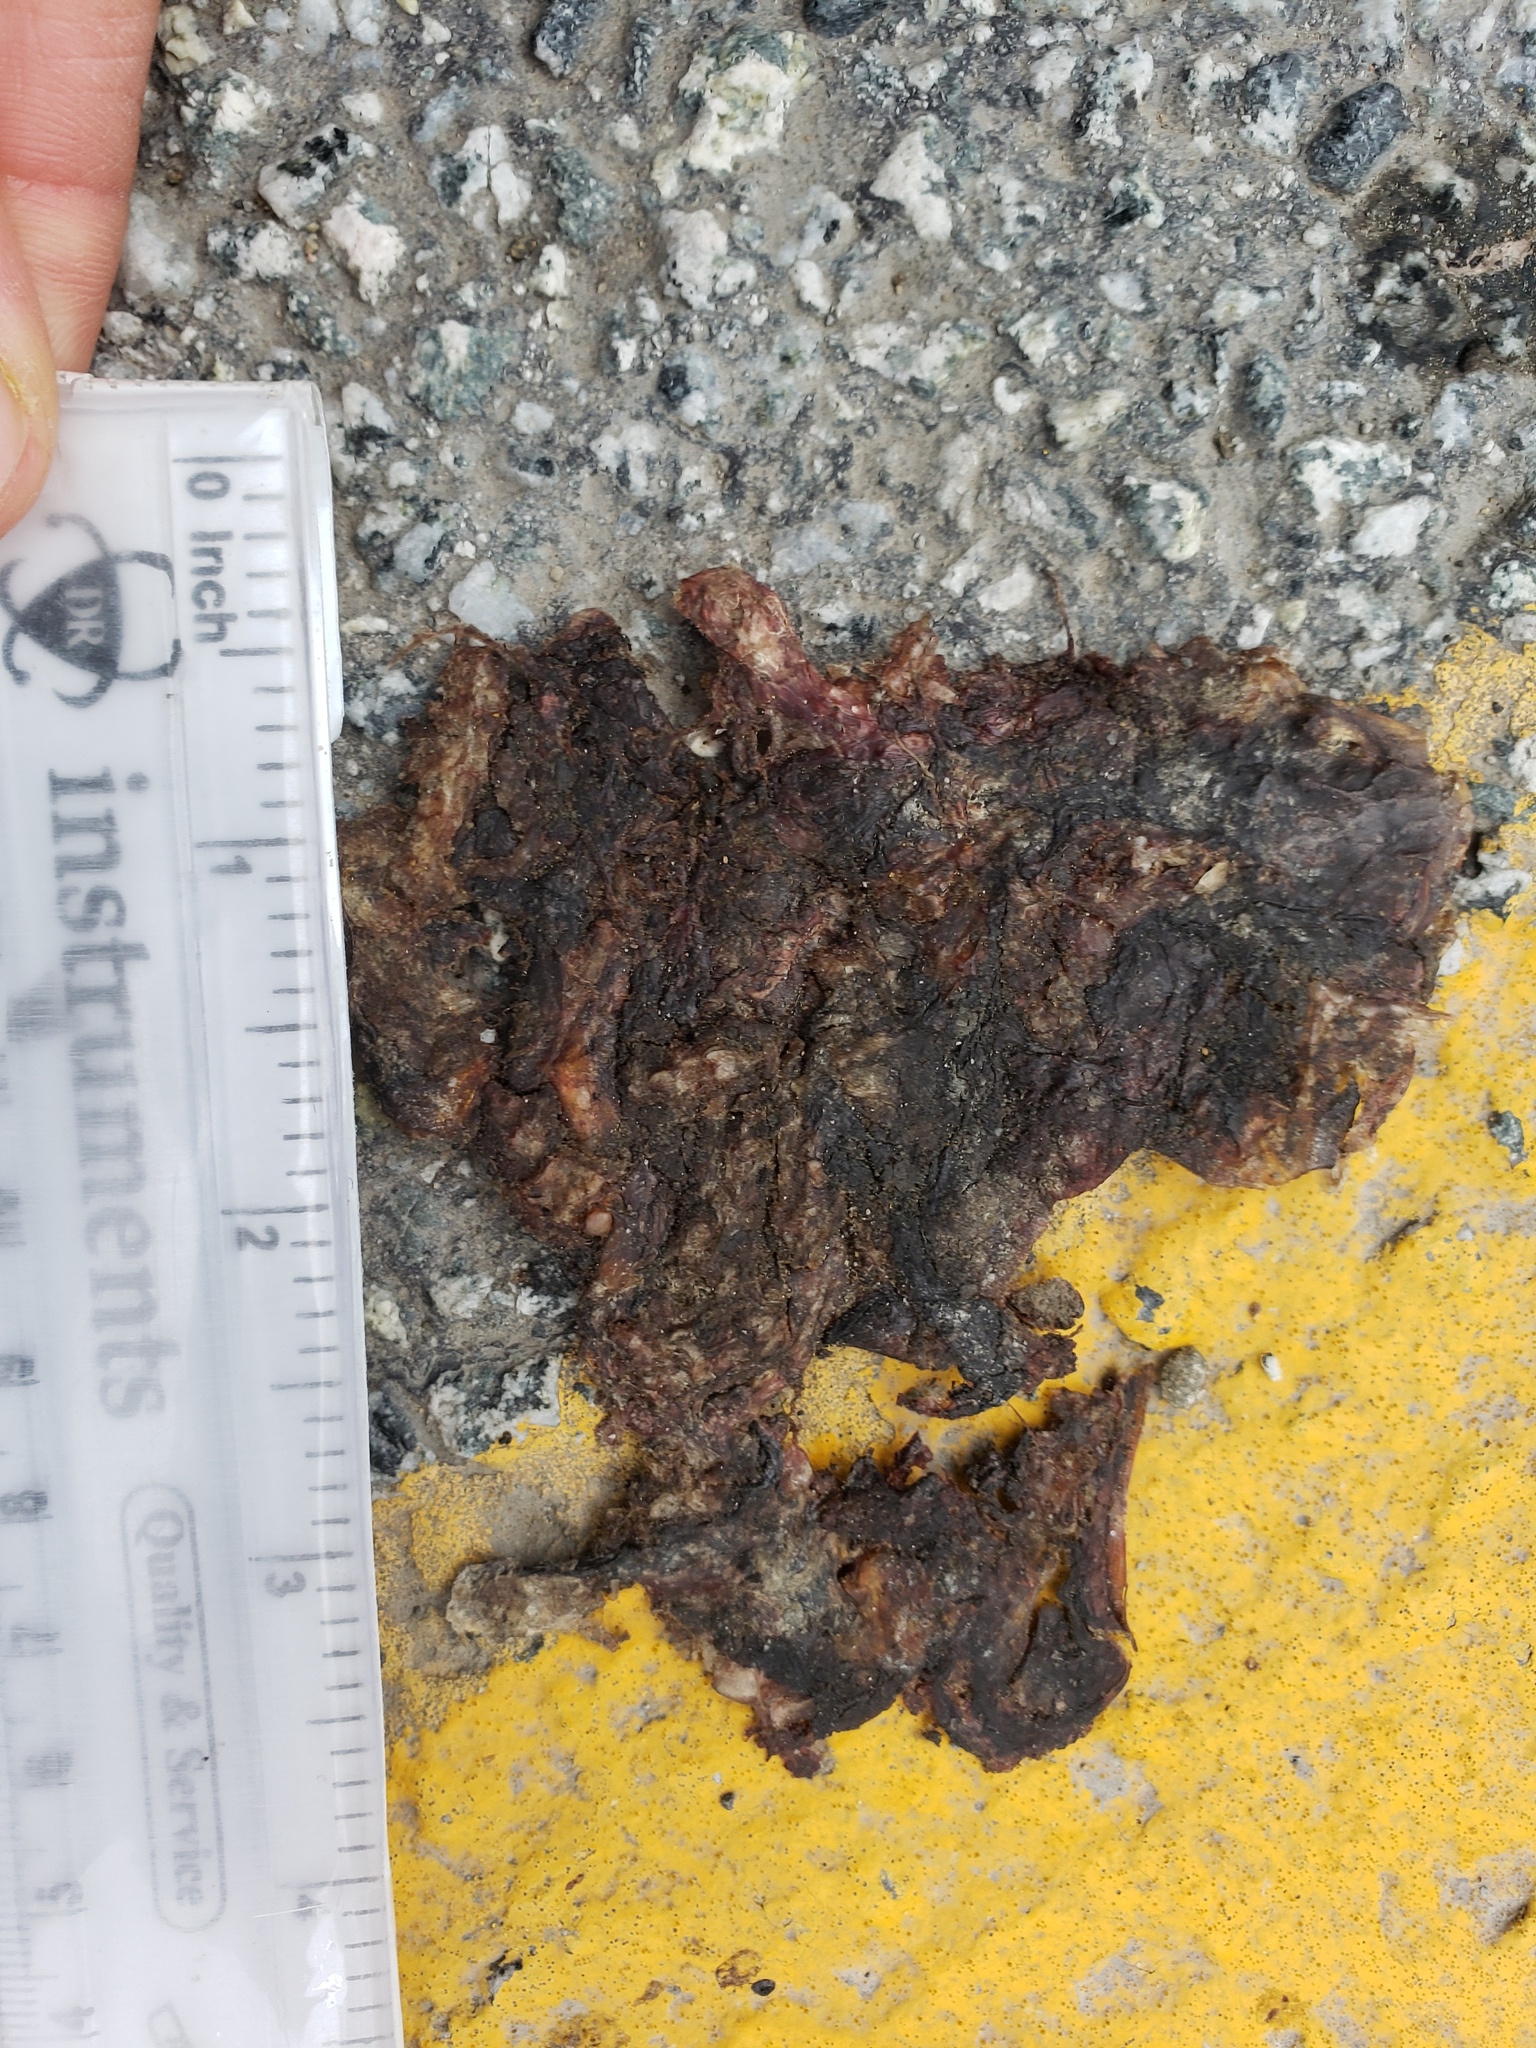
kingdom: Animalia
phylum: Chordata
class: Amphibia
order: Caudata
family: Salamandridae
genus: Taricha
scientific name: Taricha
